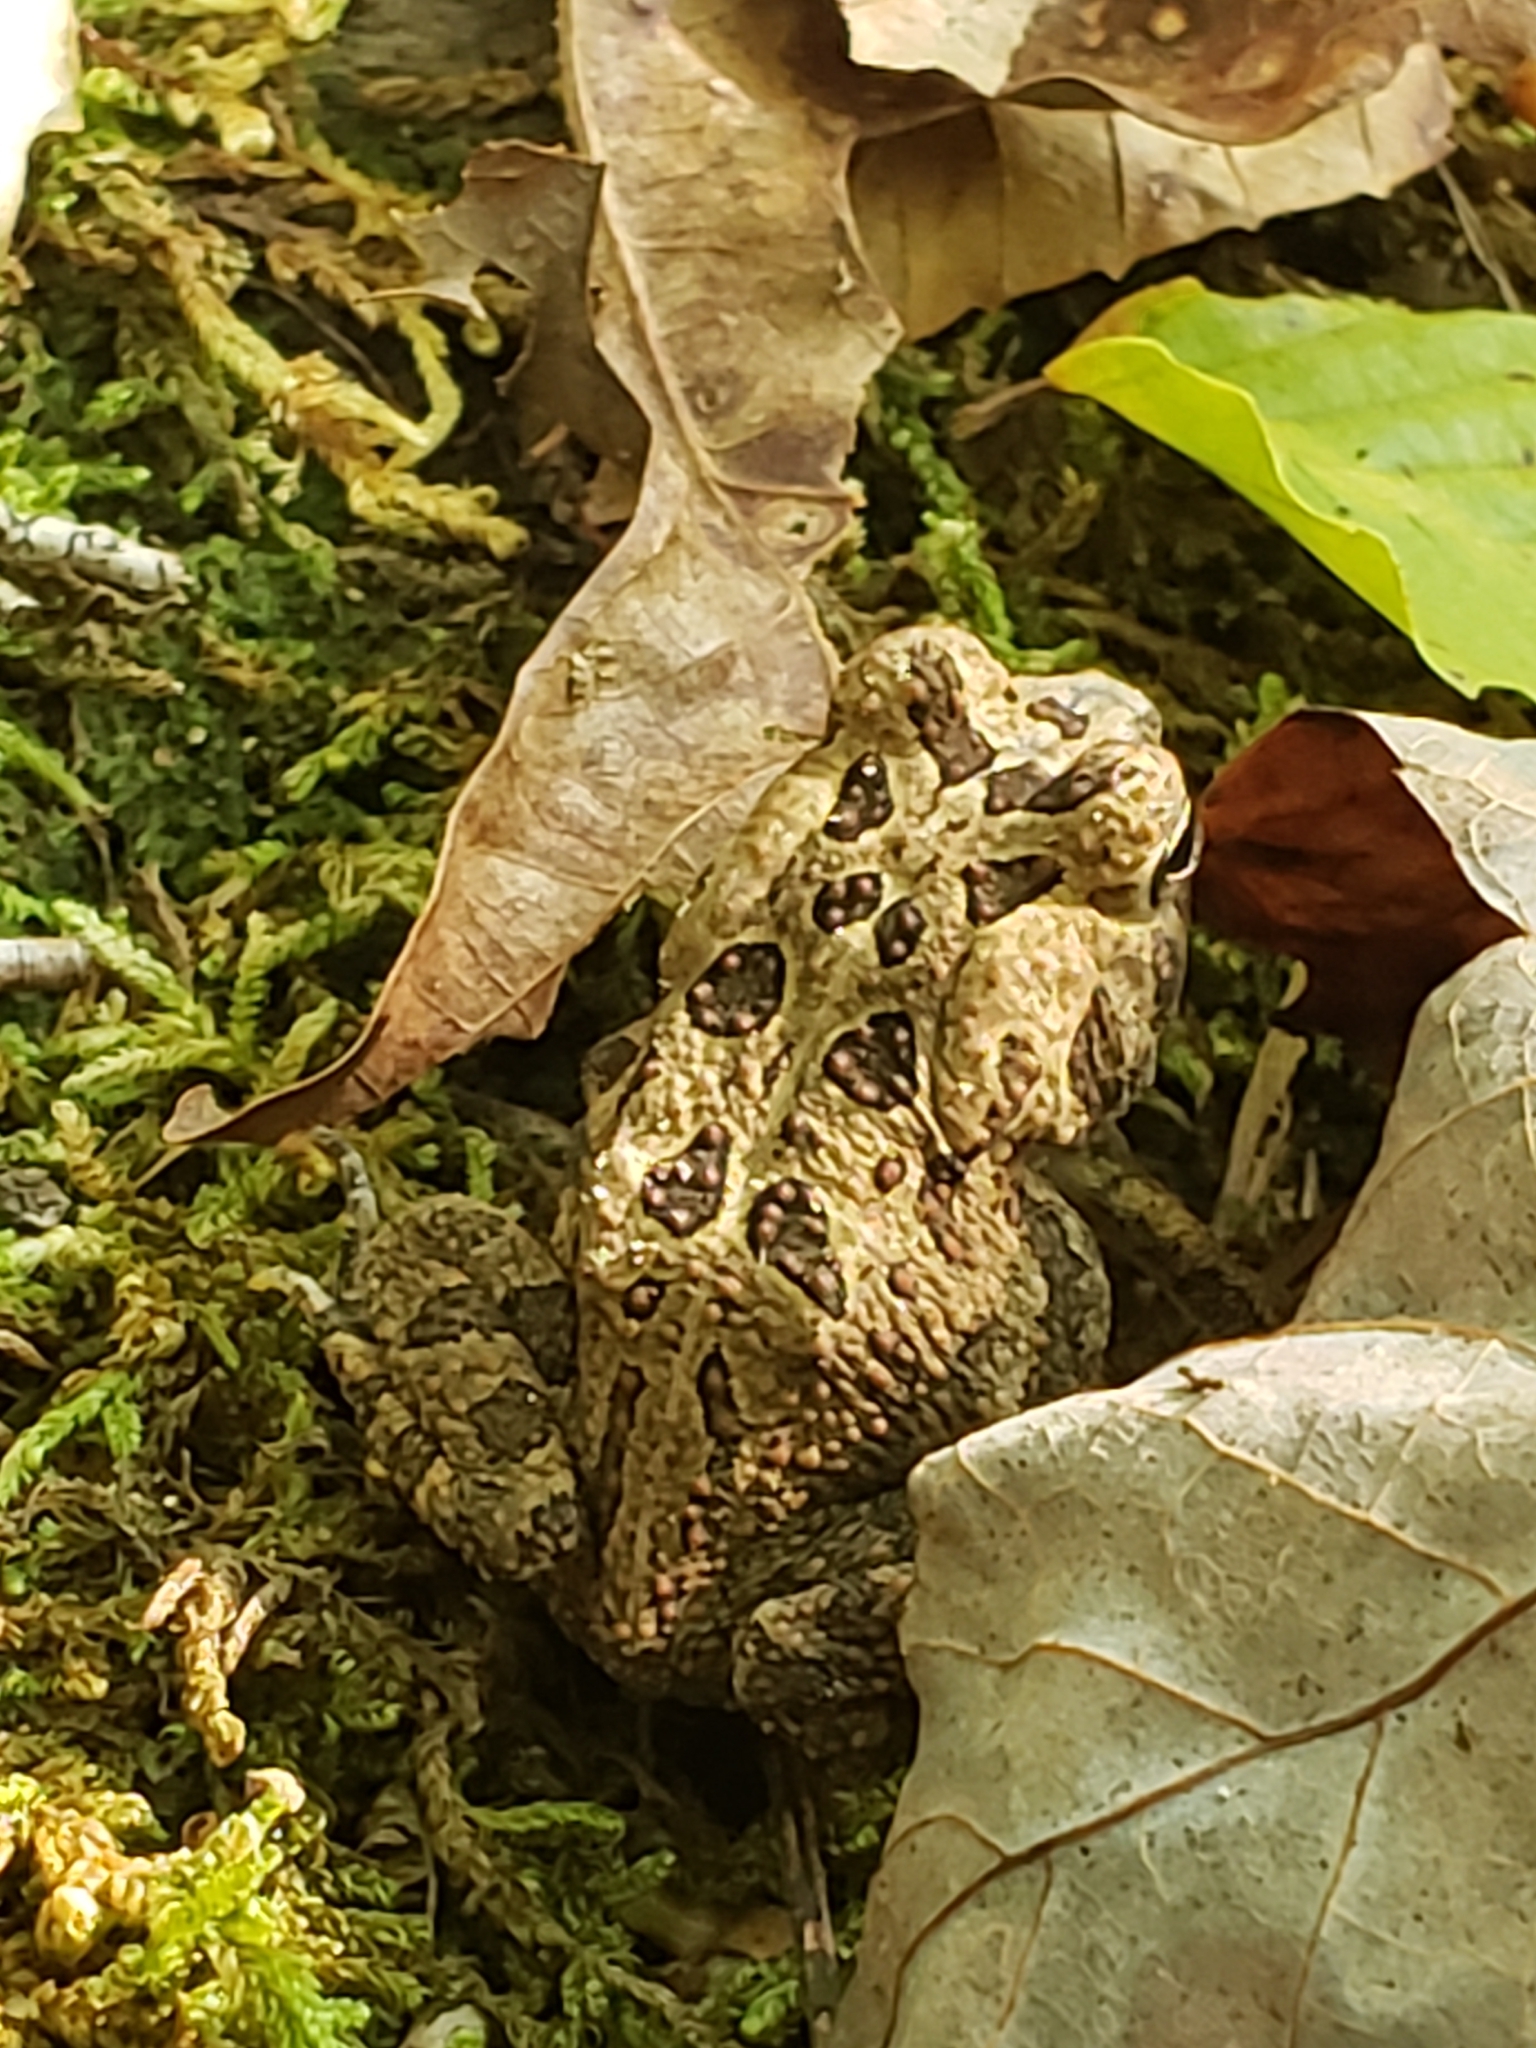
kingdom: Animalia
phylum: Chordata
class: Amphibia
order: Anura
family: Bufonidae
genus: Anaxyrus
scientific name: Anaxyrus fowleri
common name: Fowler's toad
